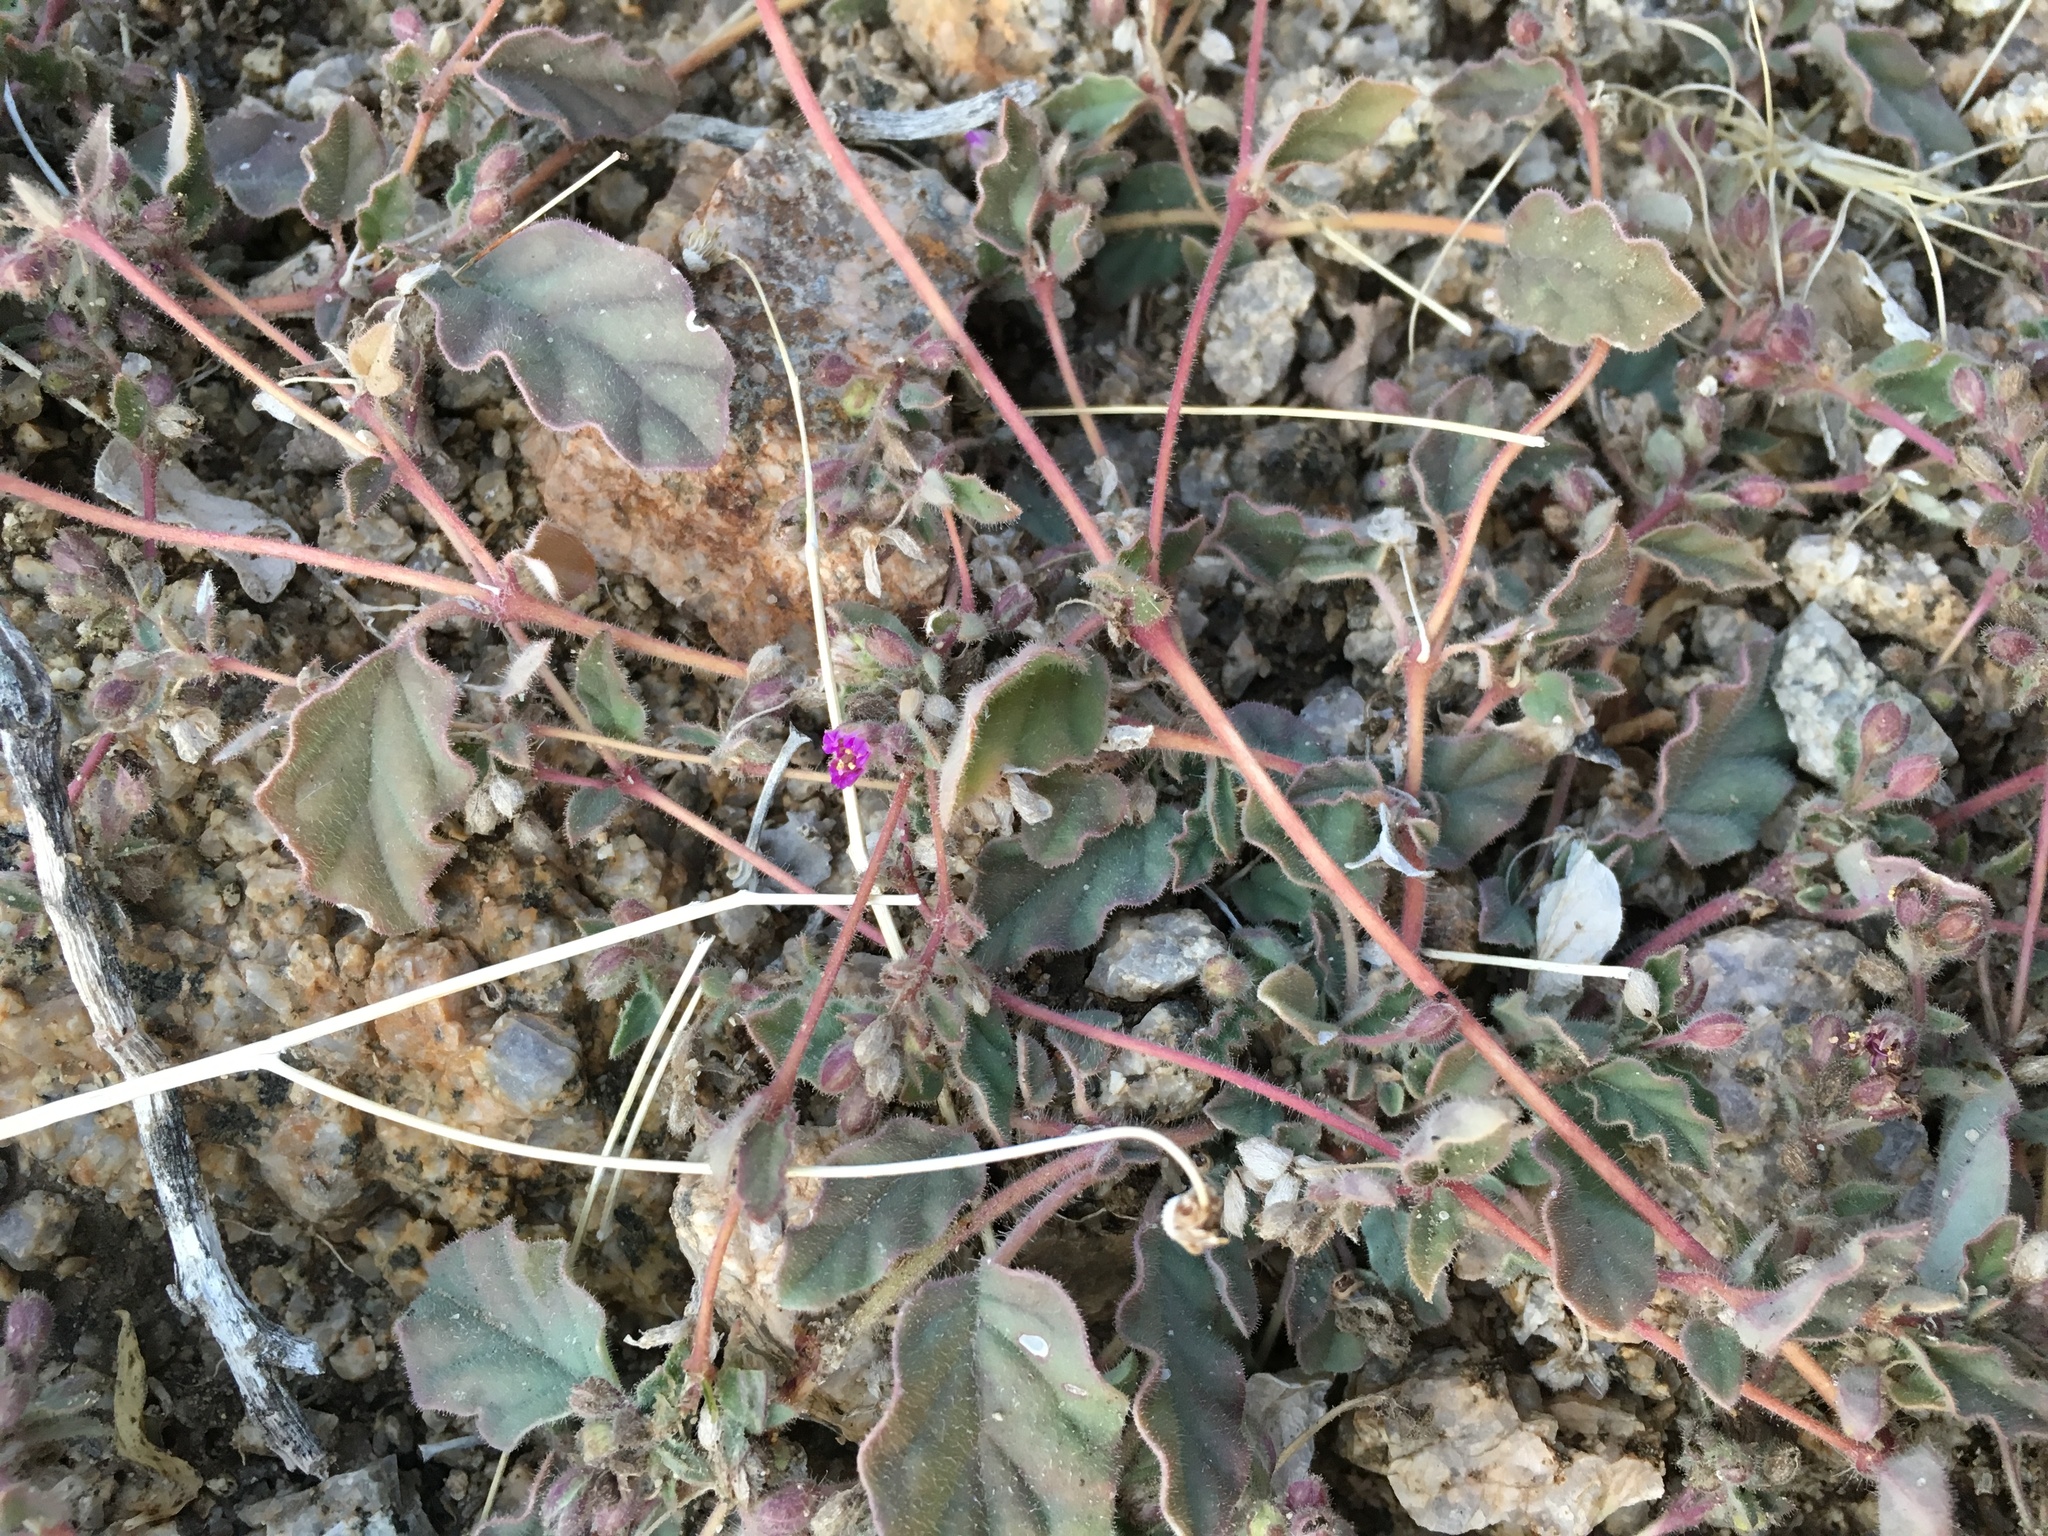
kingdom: Plantae
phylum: Tracheophyta
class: Magnoliopsida
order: Caryophyllales
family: Nyctaginaceae
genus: Allionia
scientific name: Allionia incarnata
